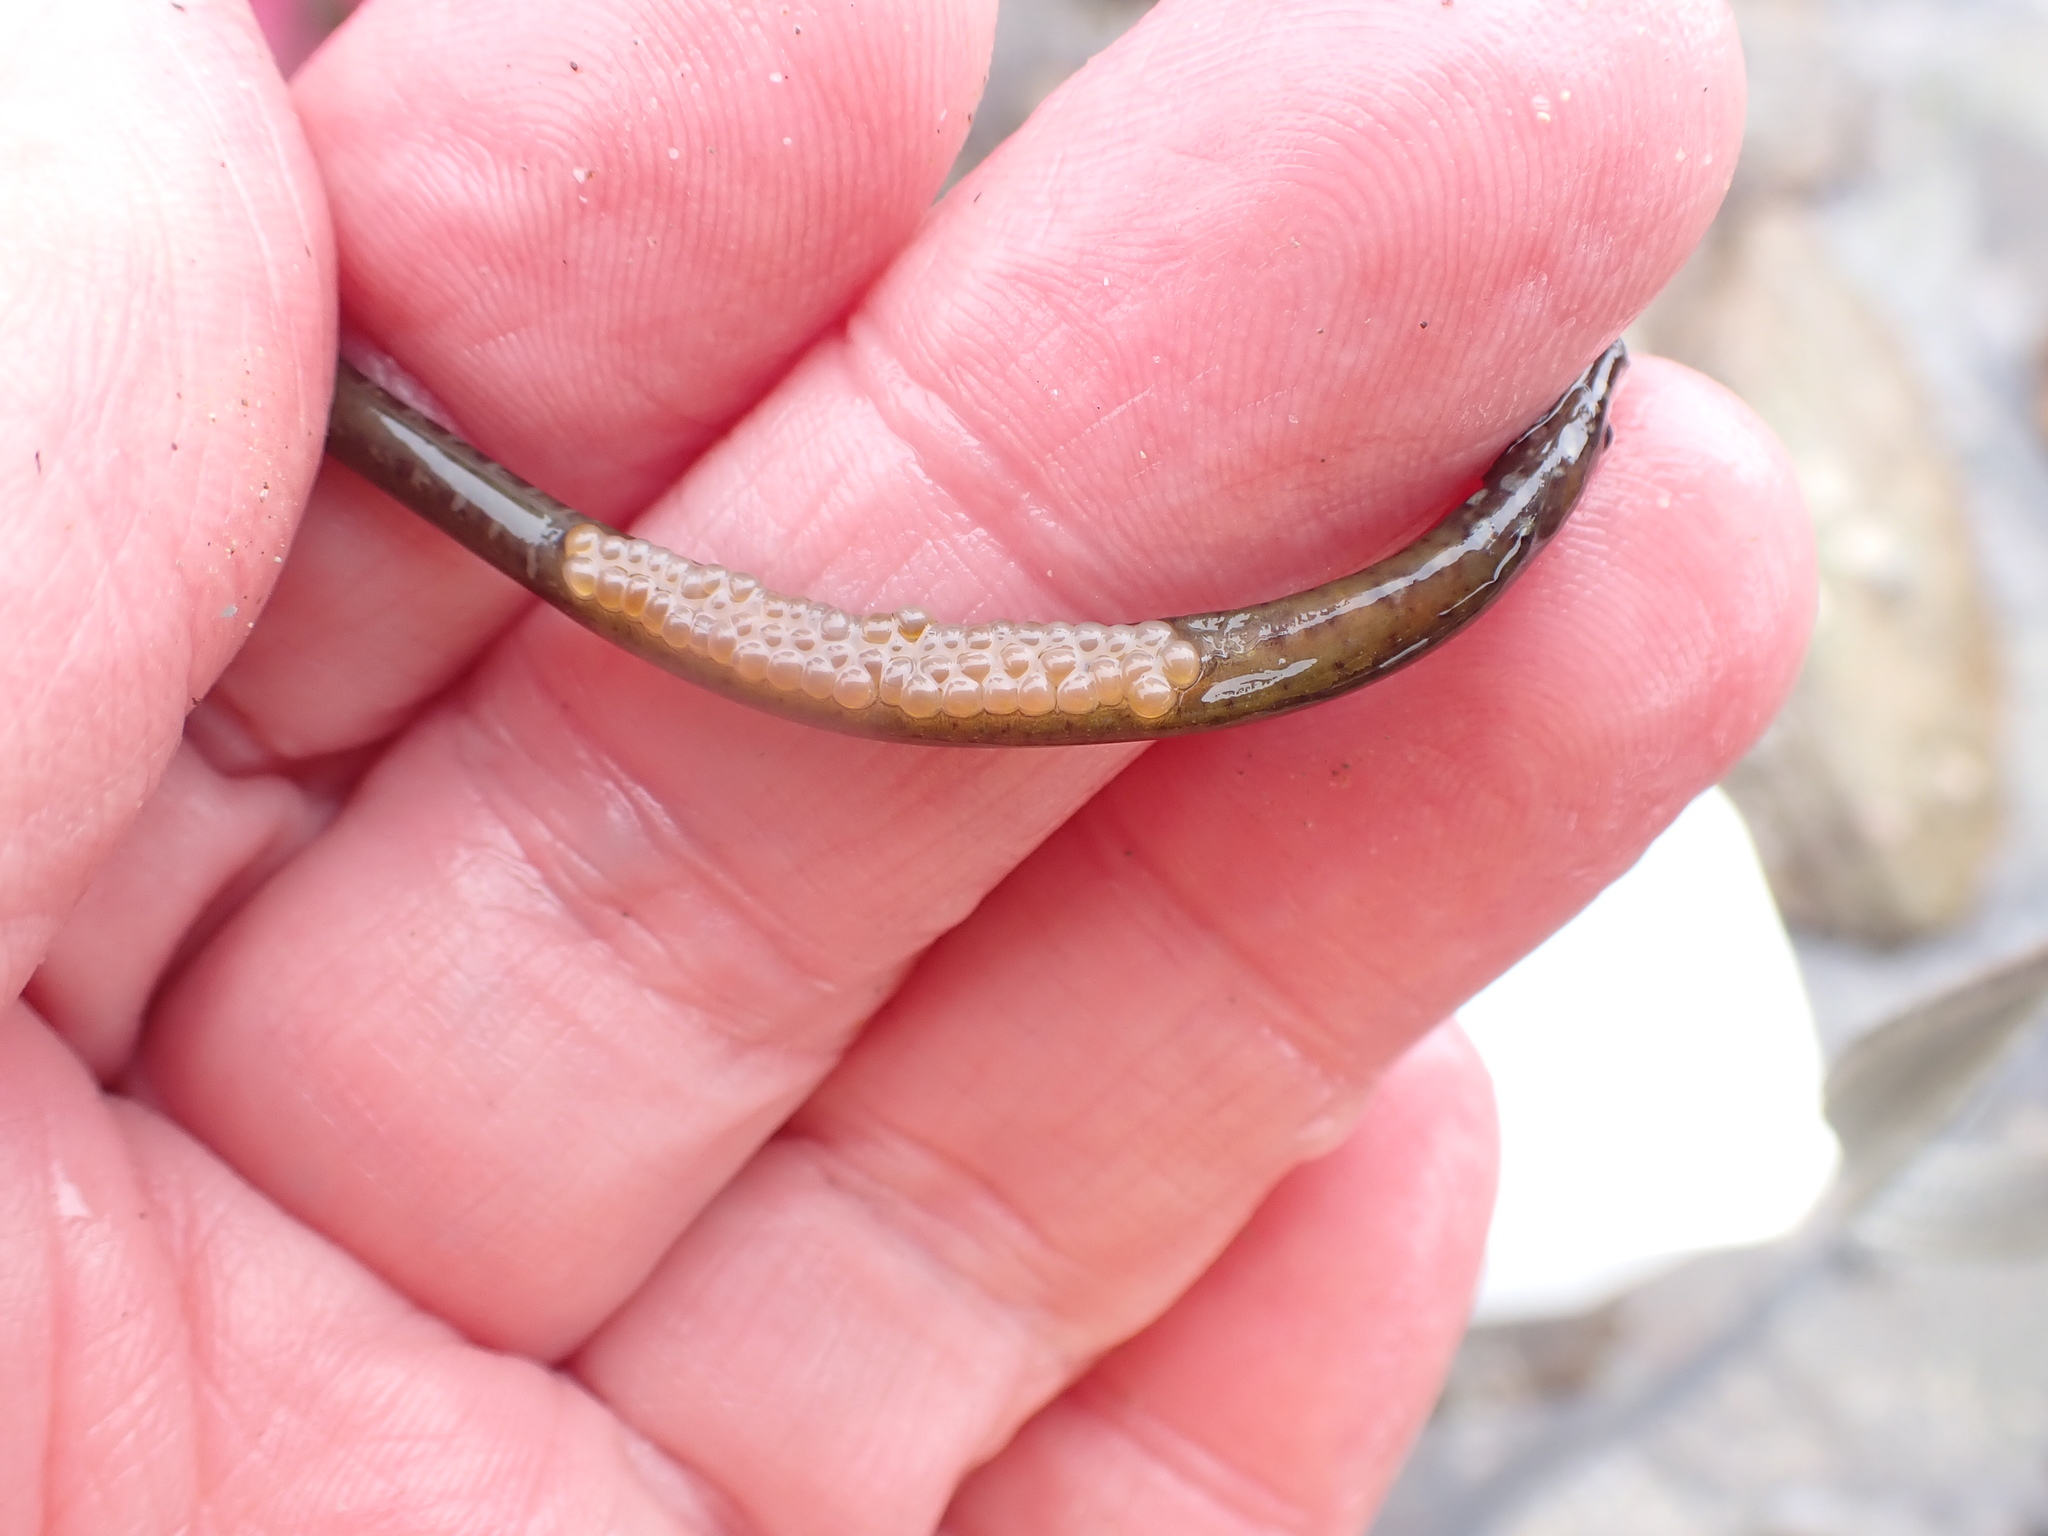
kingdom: Animalia
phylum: Chordata
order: Syngnathiformes
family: Syngnathidae
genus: Nerophis
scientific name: Nerophis lumbriciformis
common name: Worm pipefish
